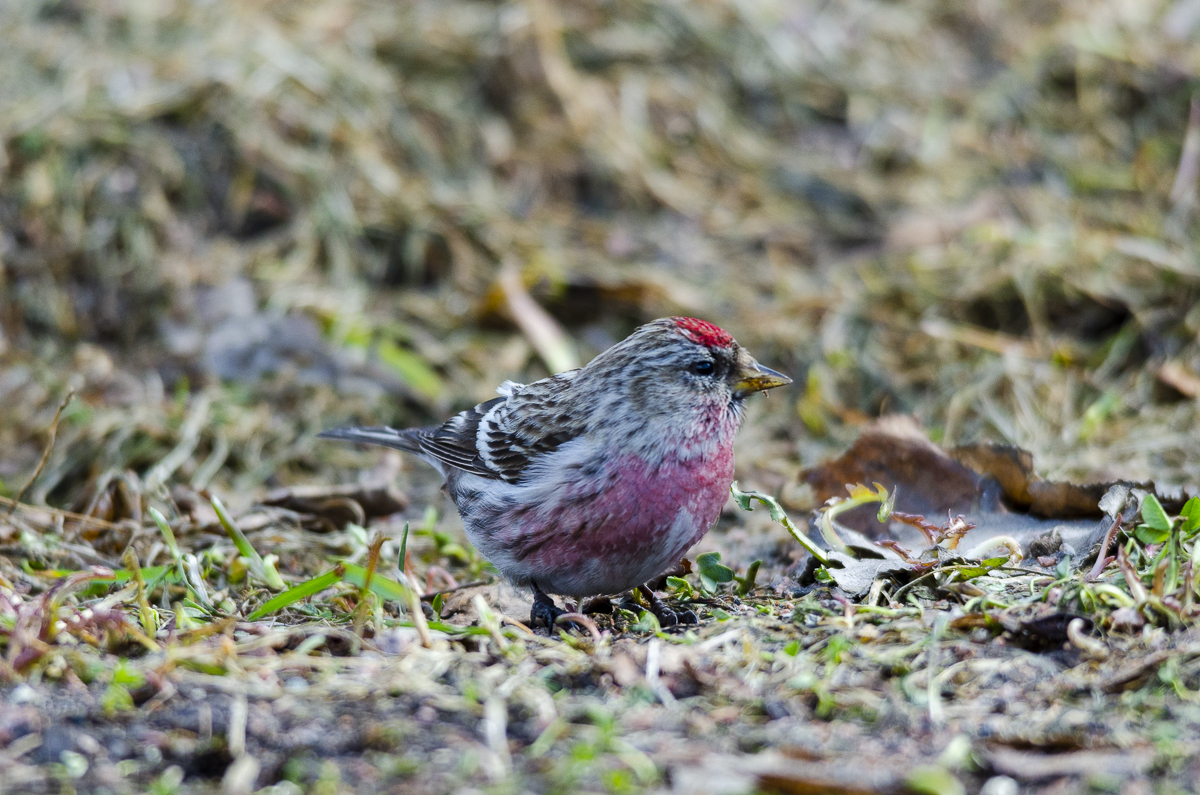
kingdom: Animalia
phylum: Chordata
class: Aves
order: Passeriformes
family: Fringillidae
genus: Acanthis
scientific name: Acanthis flammea
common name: Common redpoll
